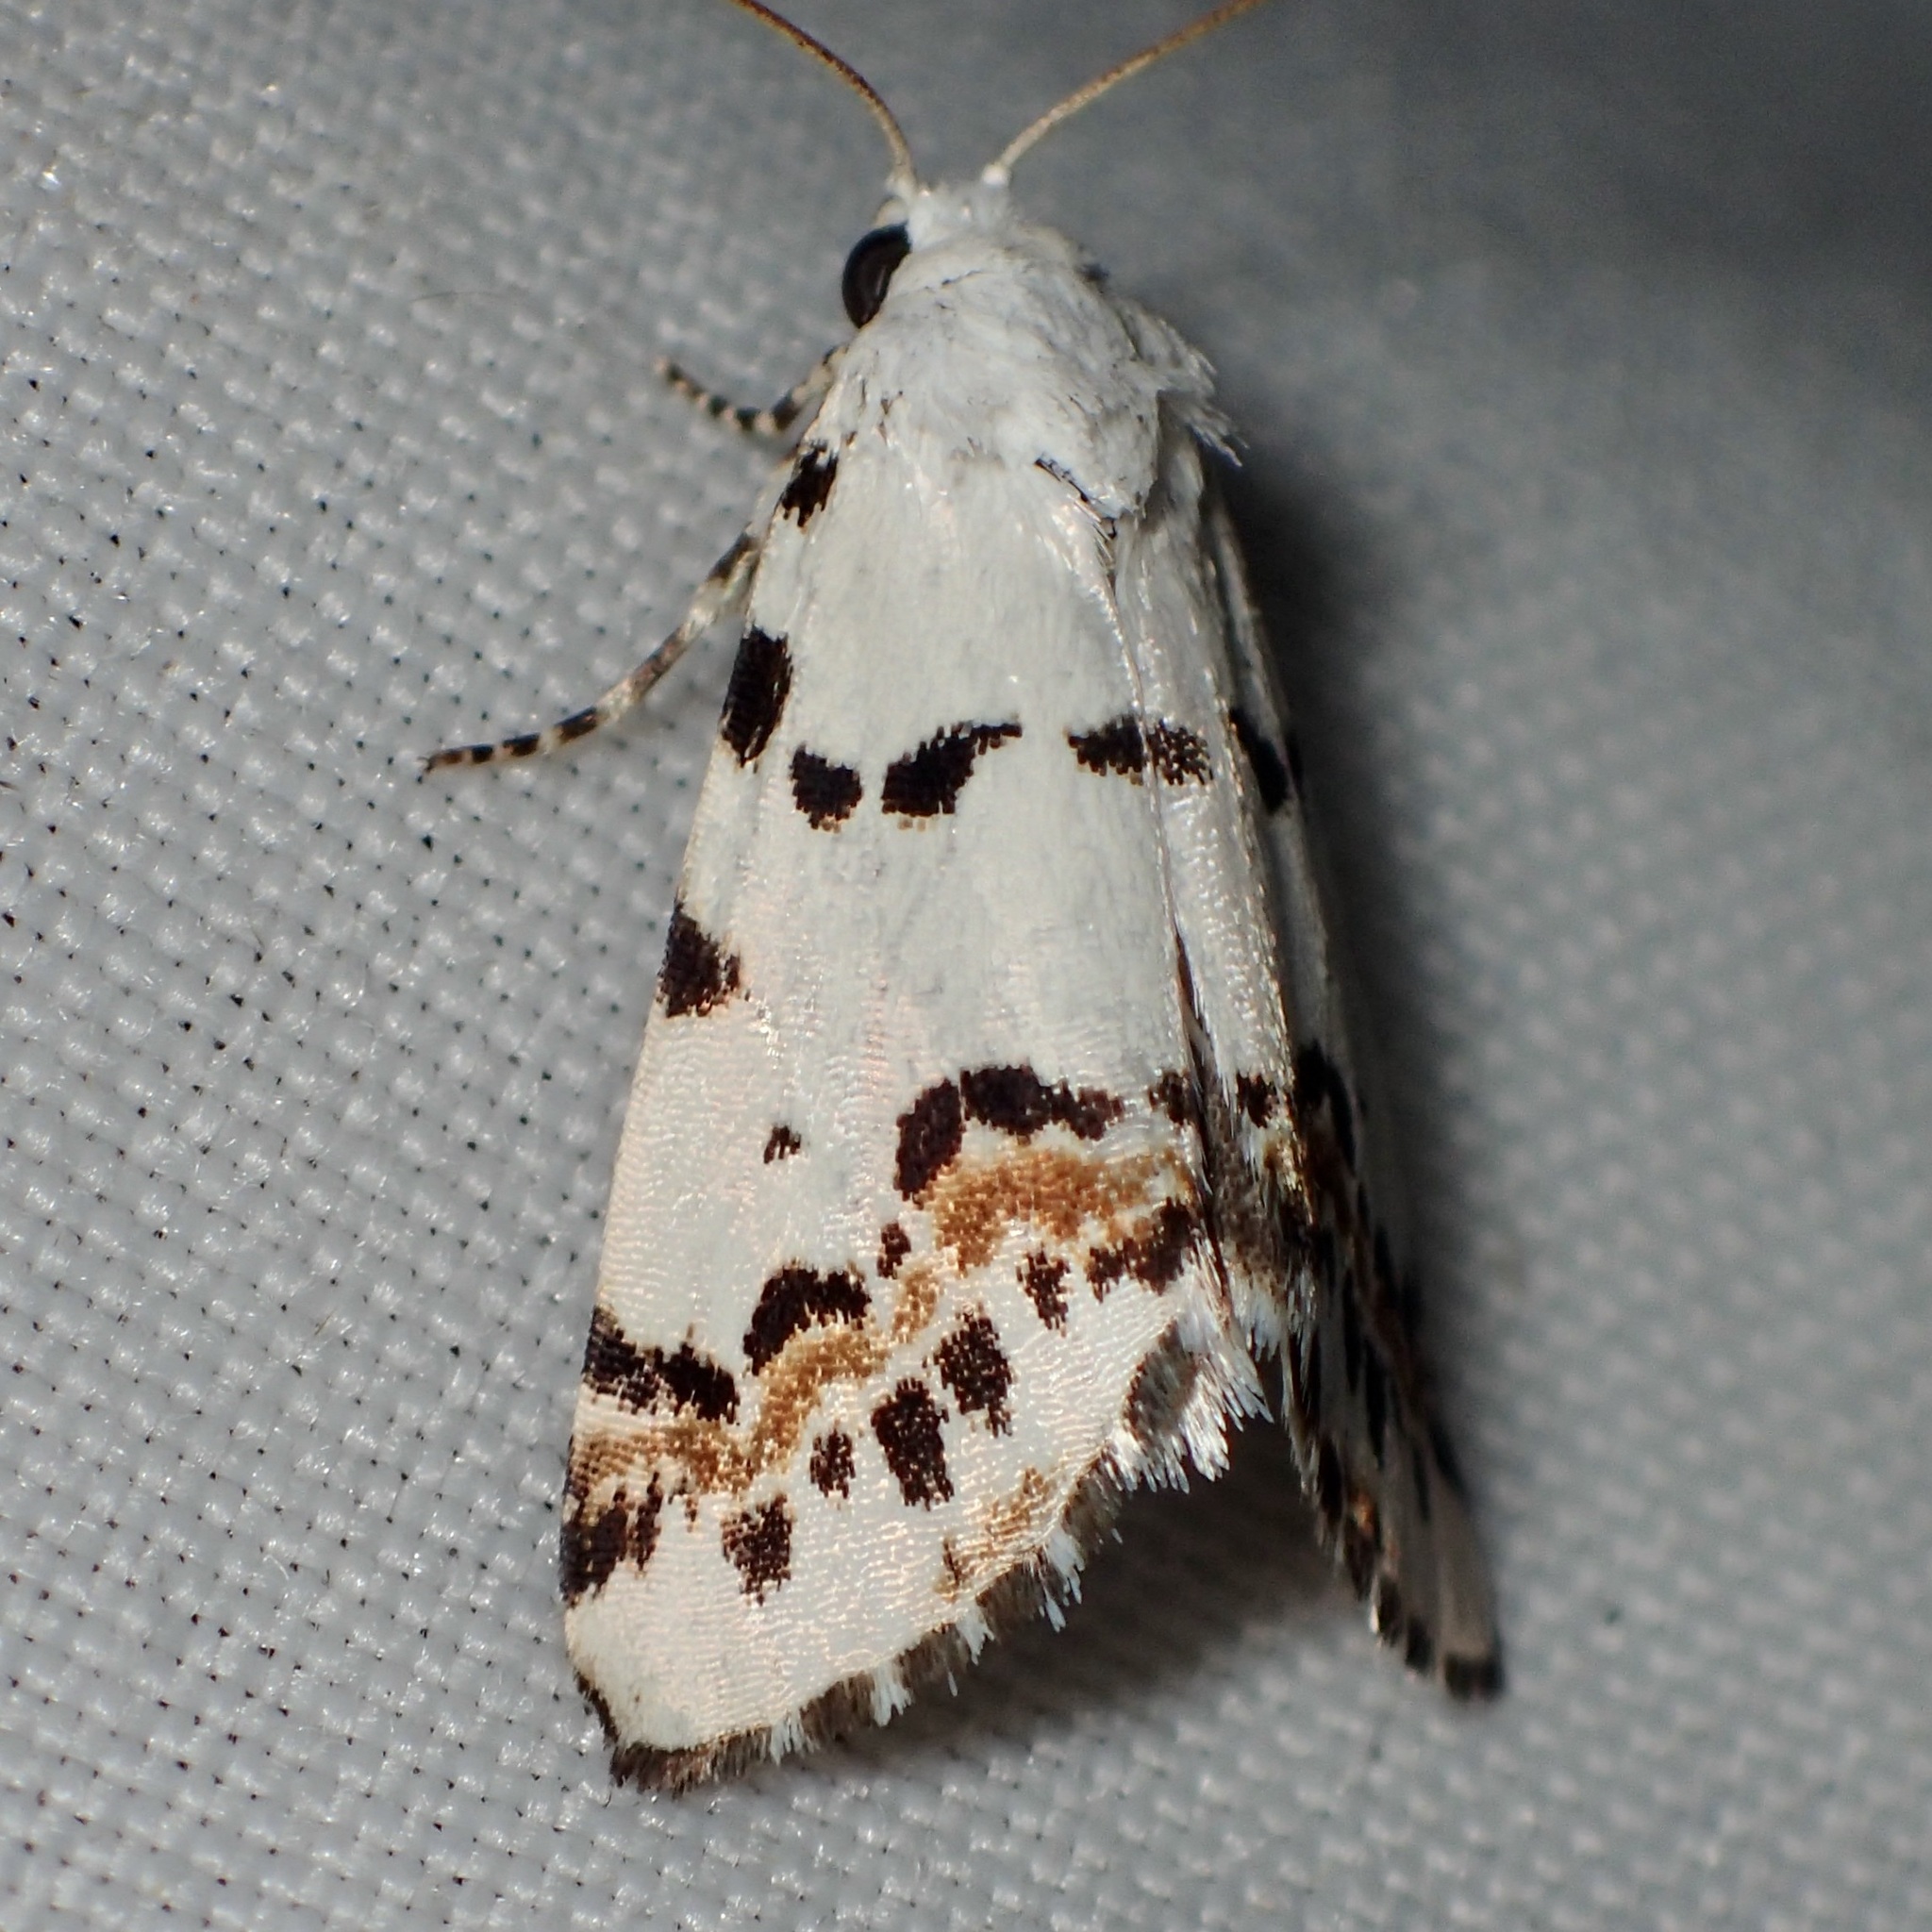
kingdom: Animalia
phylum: Arthropoda
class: Insecta
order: Lepidoptera
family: Noctuidae
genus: Grotella
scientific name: Grotella tricolor
